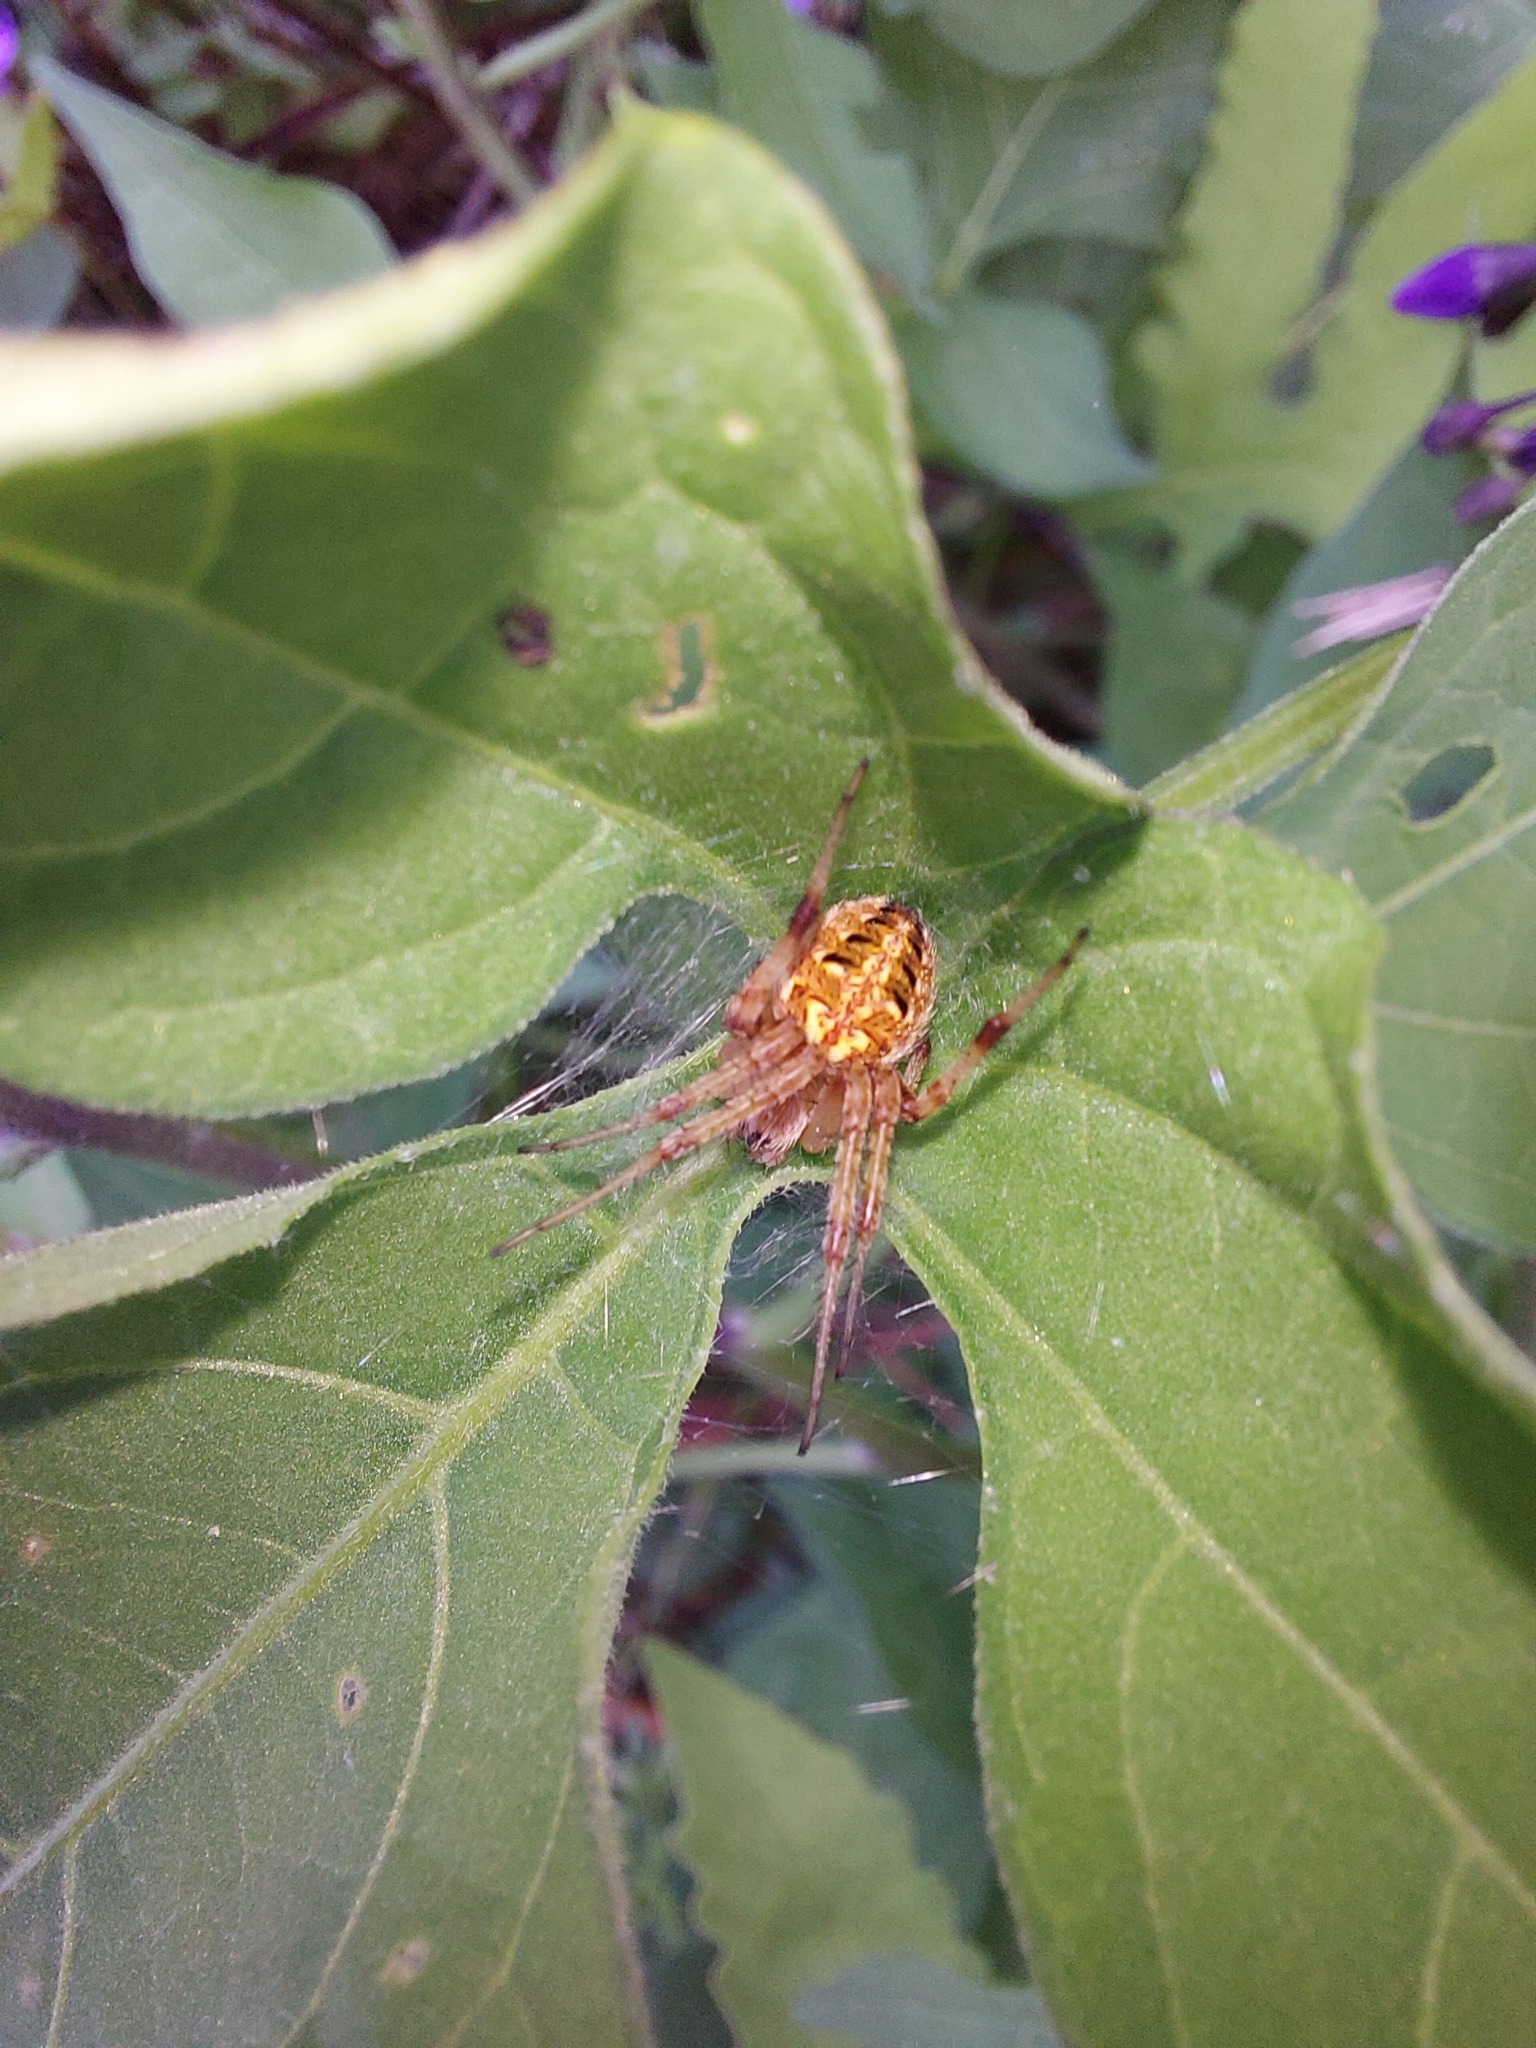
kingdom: Animalia
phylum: Arthropoda
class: Arachnida
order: Araneae
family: Araneidae
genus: Neoscona
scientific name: Neoscona arabesca
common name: Orb weavers
